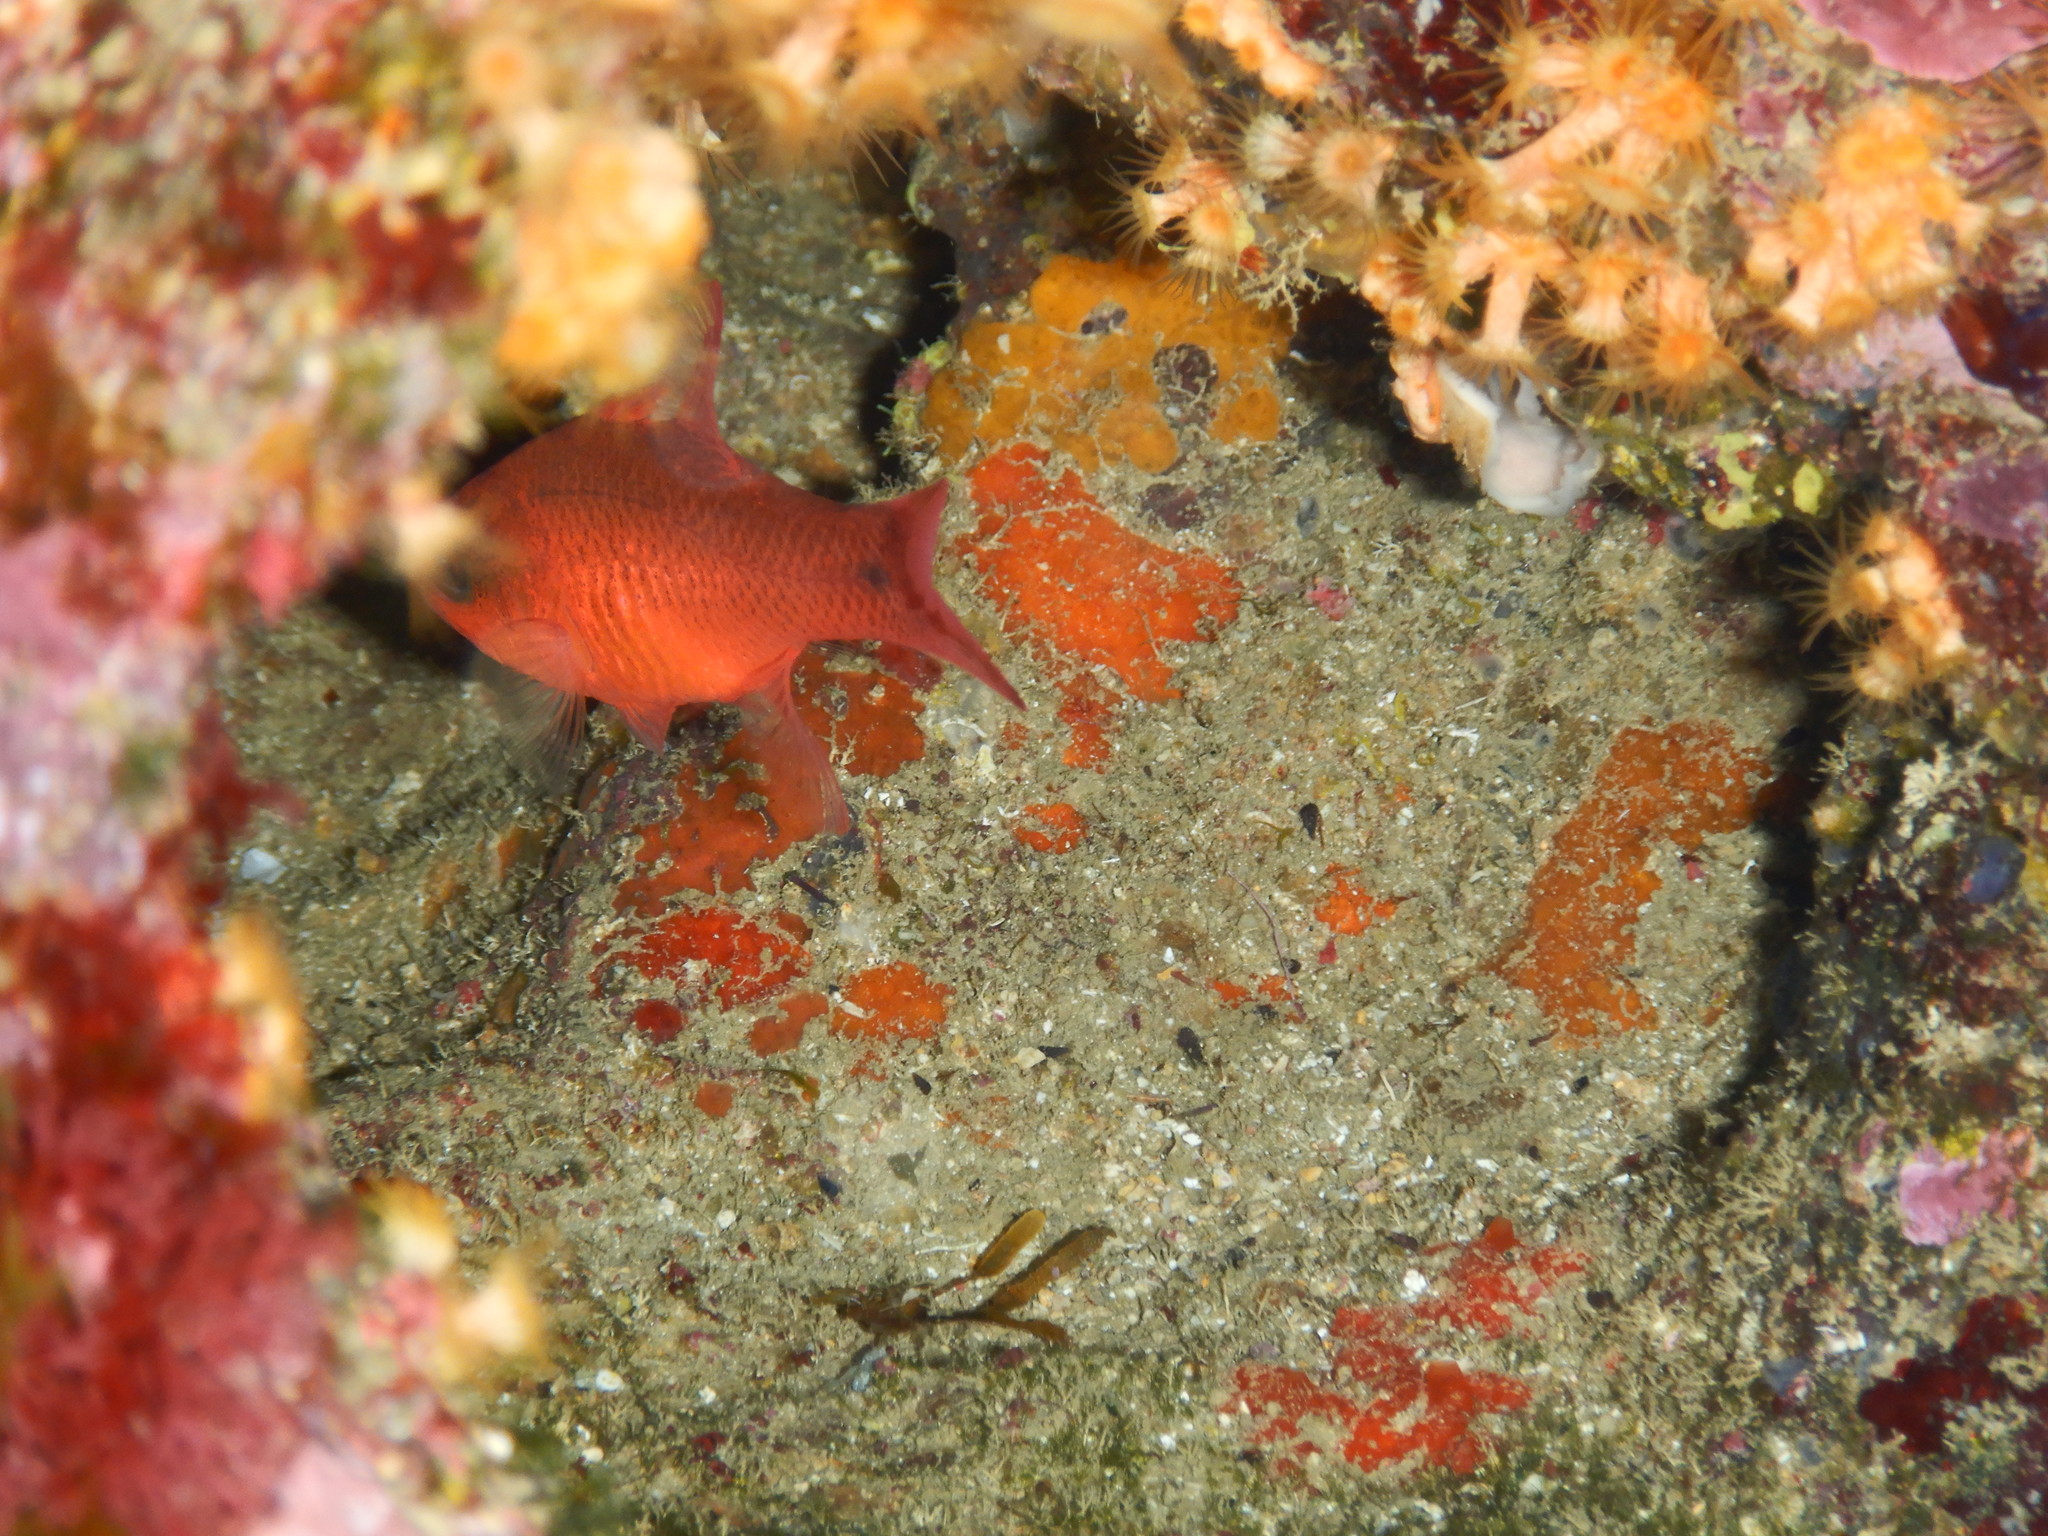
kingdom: Animalia
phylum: Chordata
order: Perciformes
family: Apogonidae
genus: Apogon
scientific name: Apogon imberbis
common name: Cardinal fish
